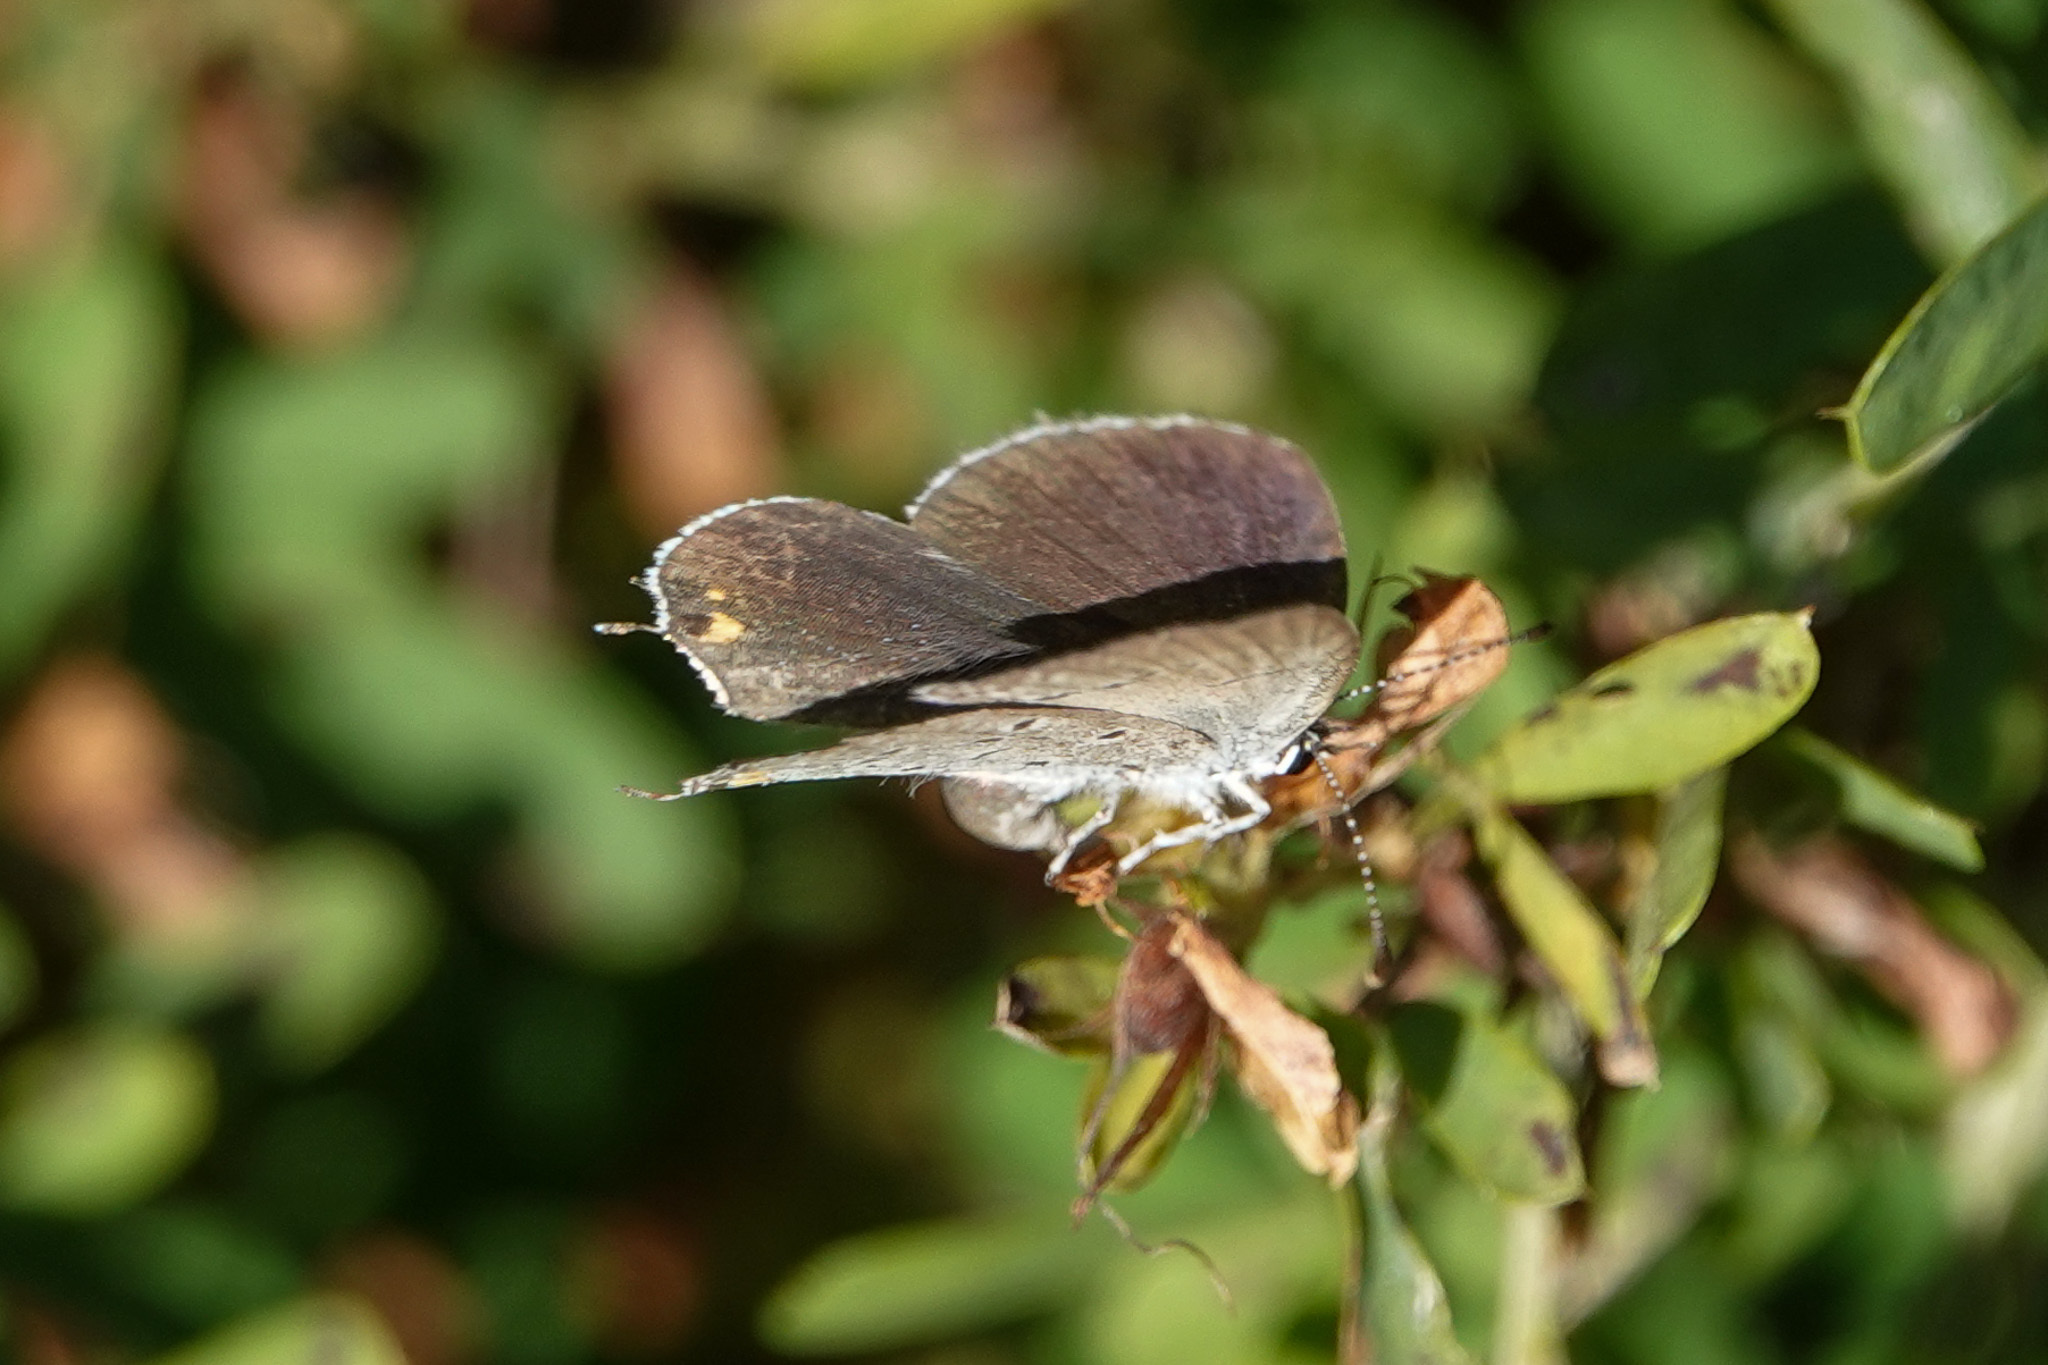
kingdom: Animalia
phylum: Arthropoda
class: Insecta
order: Lepidoptera
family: Lycaenidae
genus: Elkalyce
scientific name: Elkalyce comyntas
